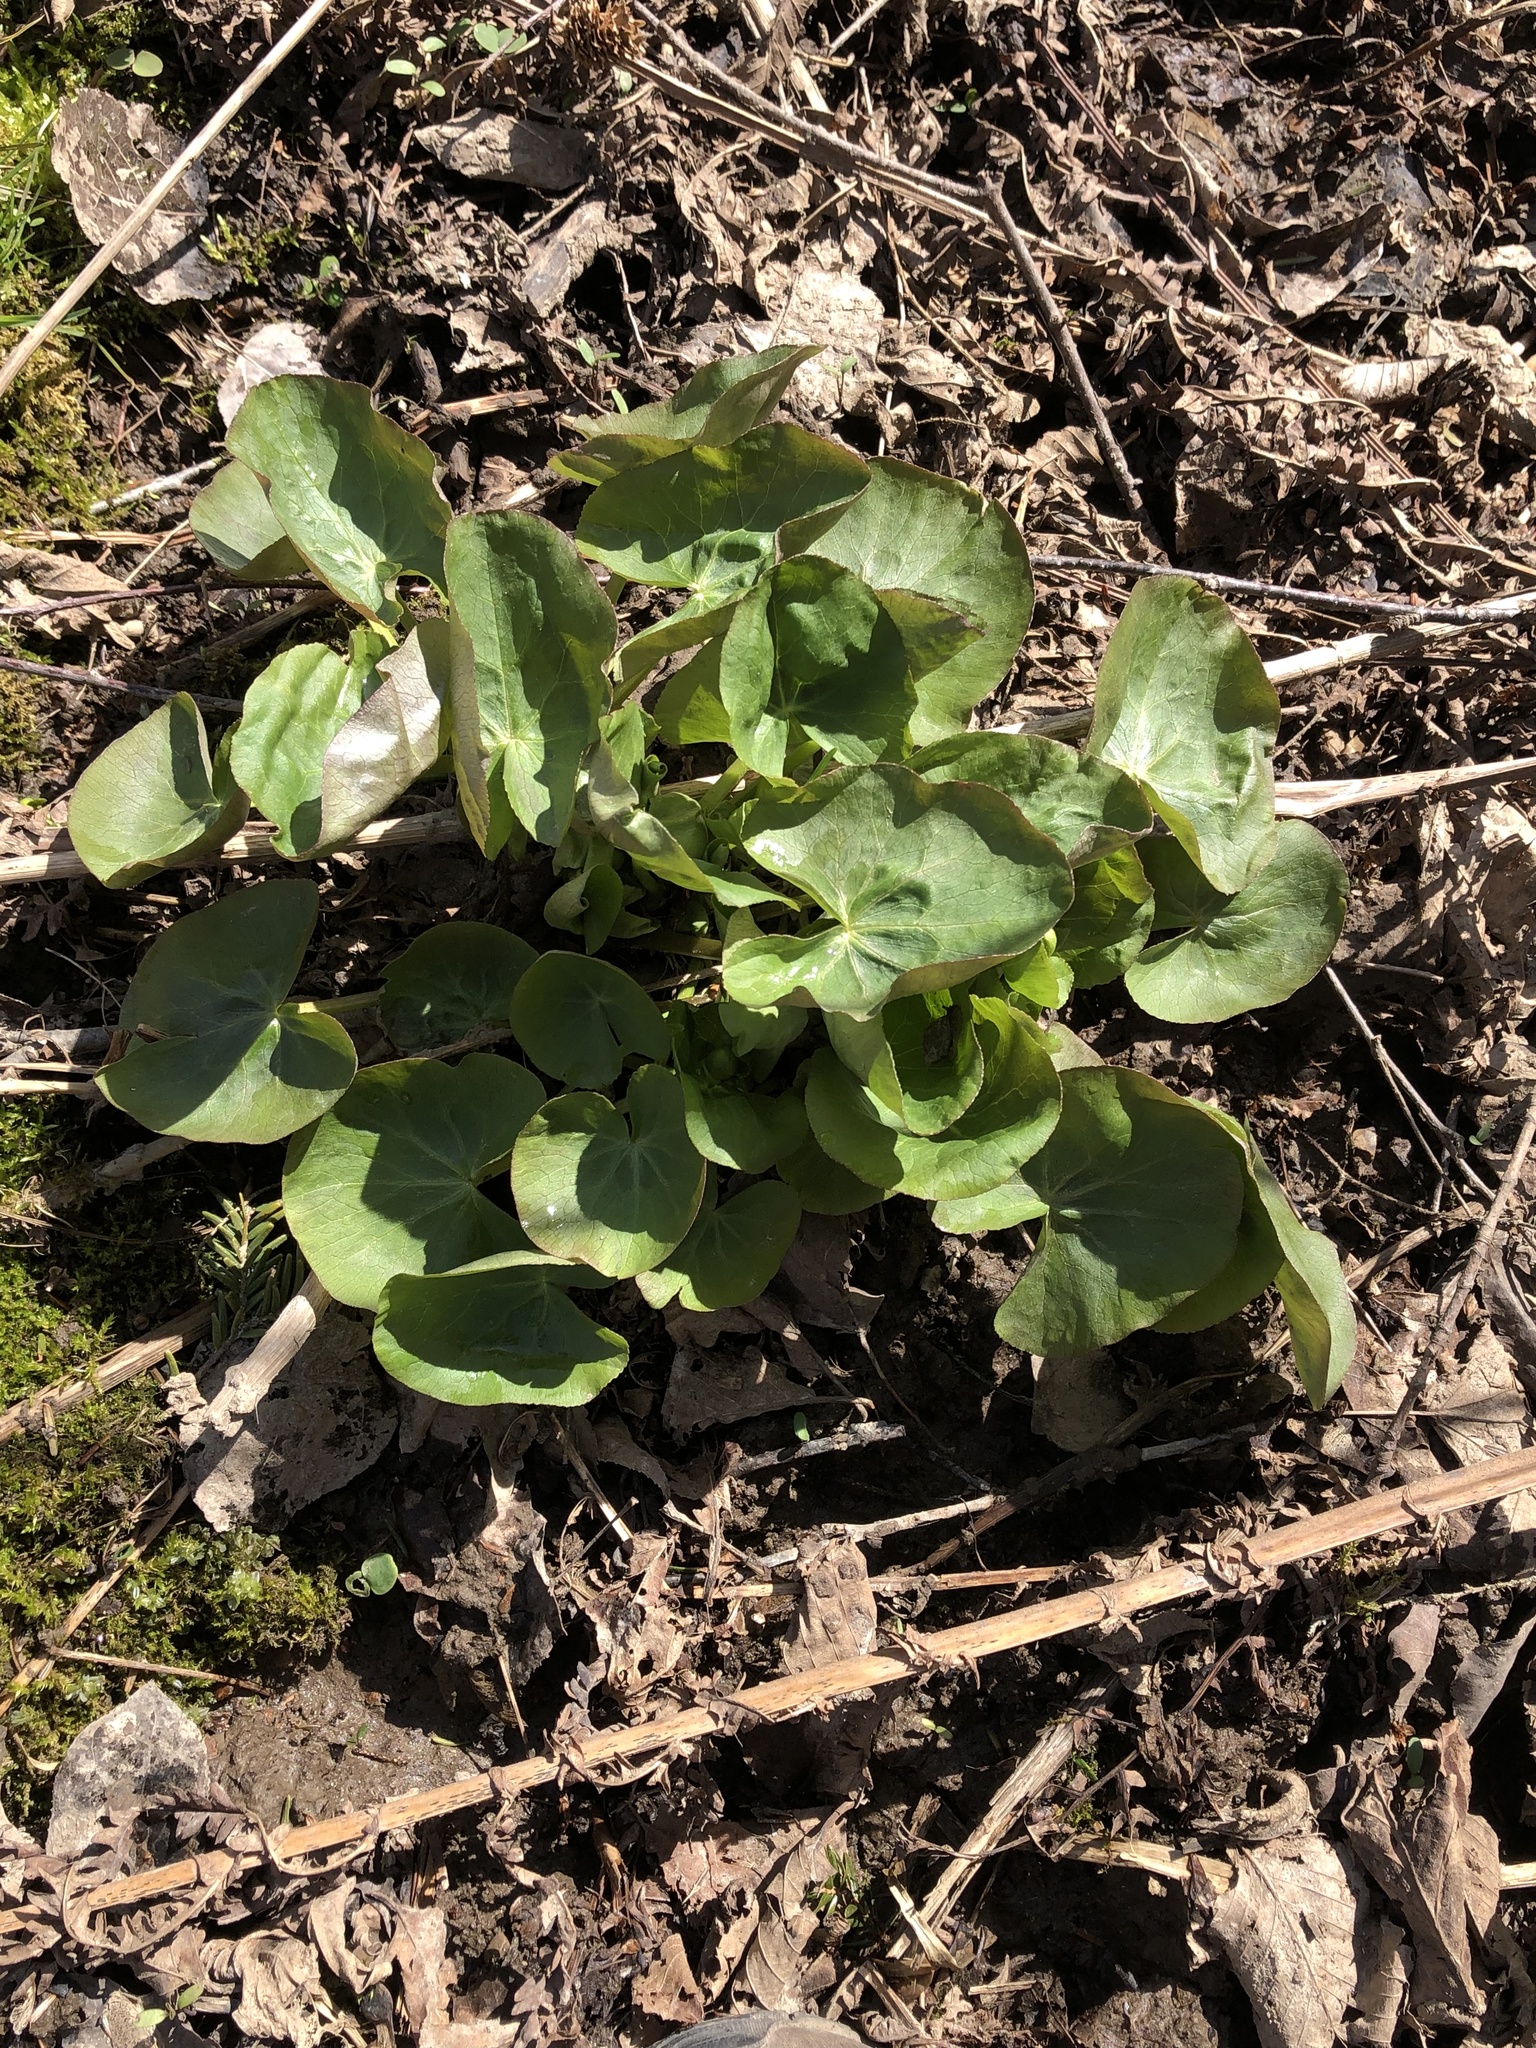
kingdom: Plantae
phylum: Tracheophyta
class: Magnoliopsida
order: Ranunculales
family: Ranunculaceae
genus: Caltha
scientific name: Caltha palustris
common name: Marsh marigold
